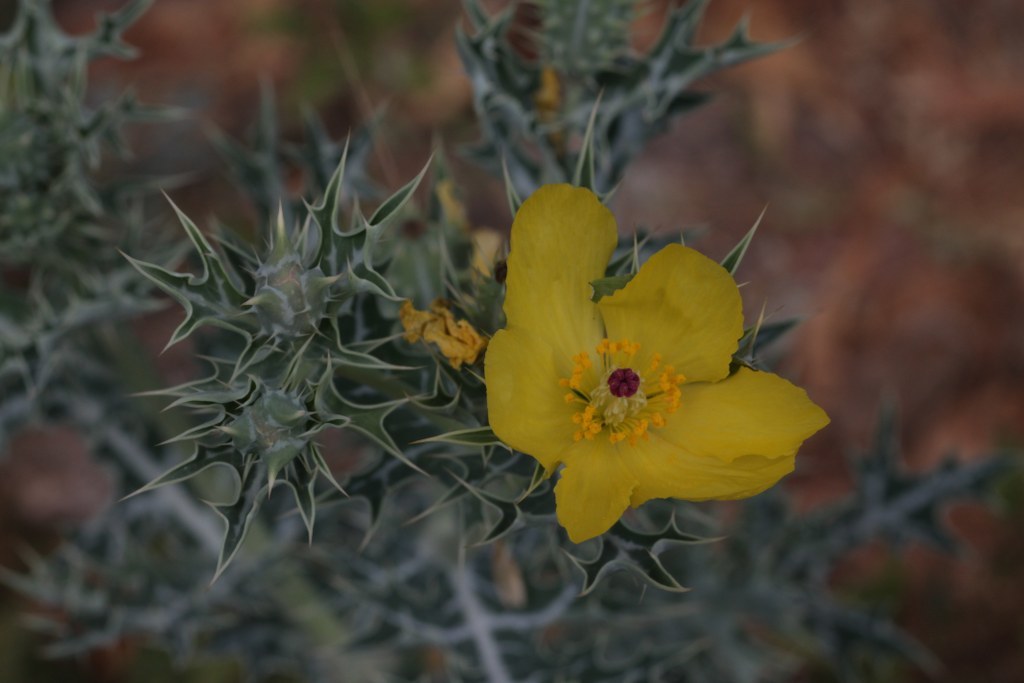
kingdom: Plantae
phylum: Tracheophyta
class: Magnoliopsida
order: Ranunculales
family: Papaveraceae
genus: Argemone
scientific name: Argemone mexicana
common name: Mexican poppy
